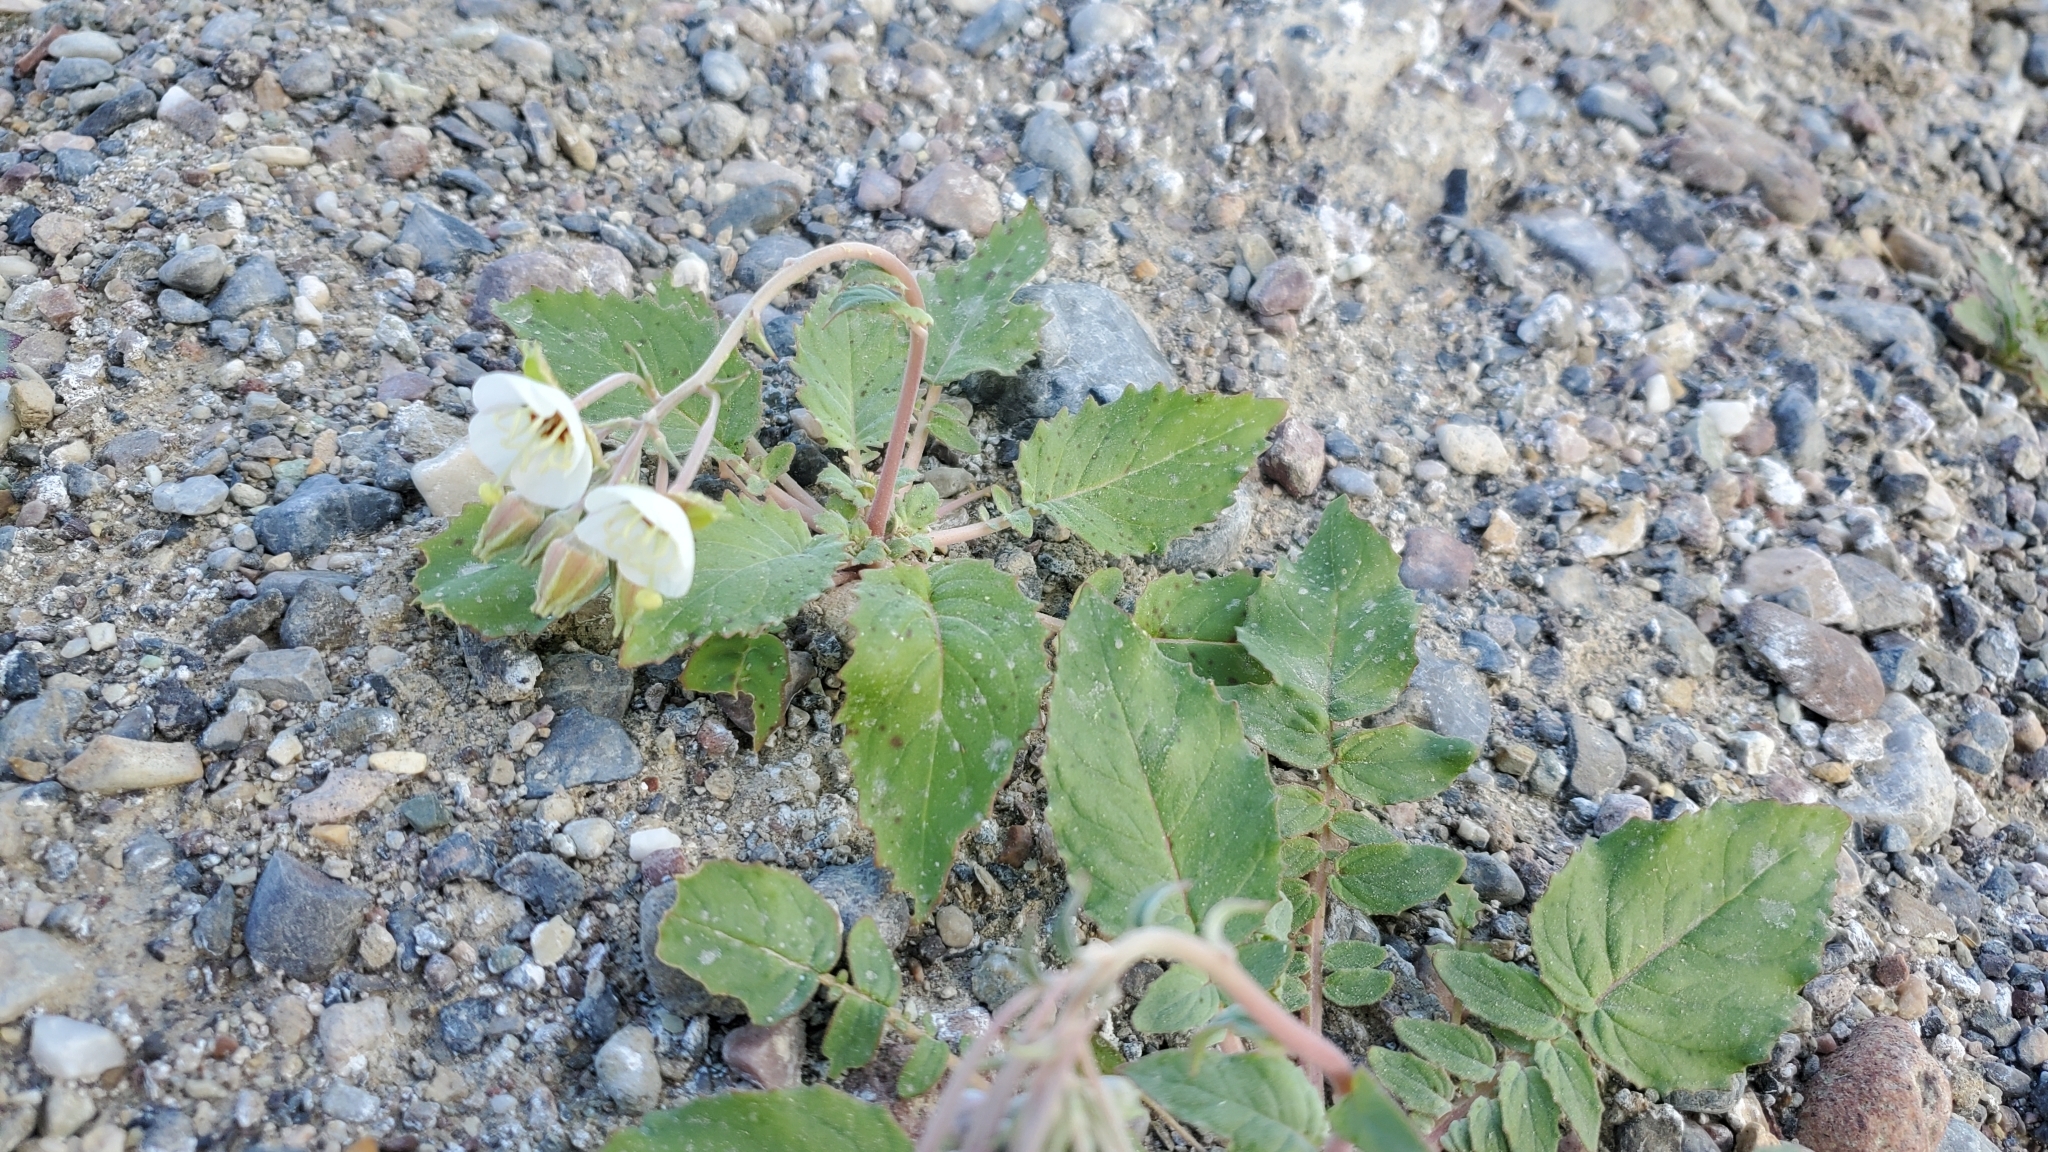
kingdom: Plantae
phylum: Tracheophyta
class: Magnoliopsida
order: Myrtales
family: Onagraceae
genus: Chylismia
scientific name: Chylismia claviformis
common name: Browneyes
